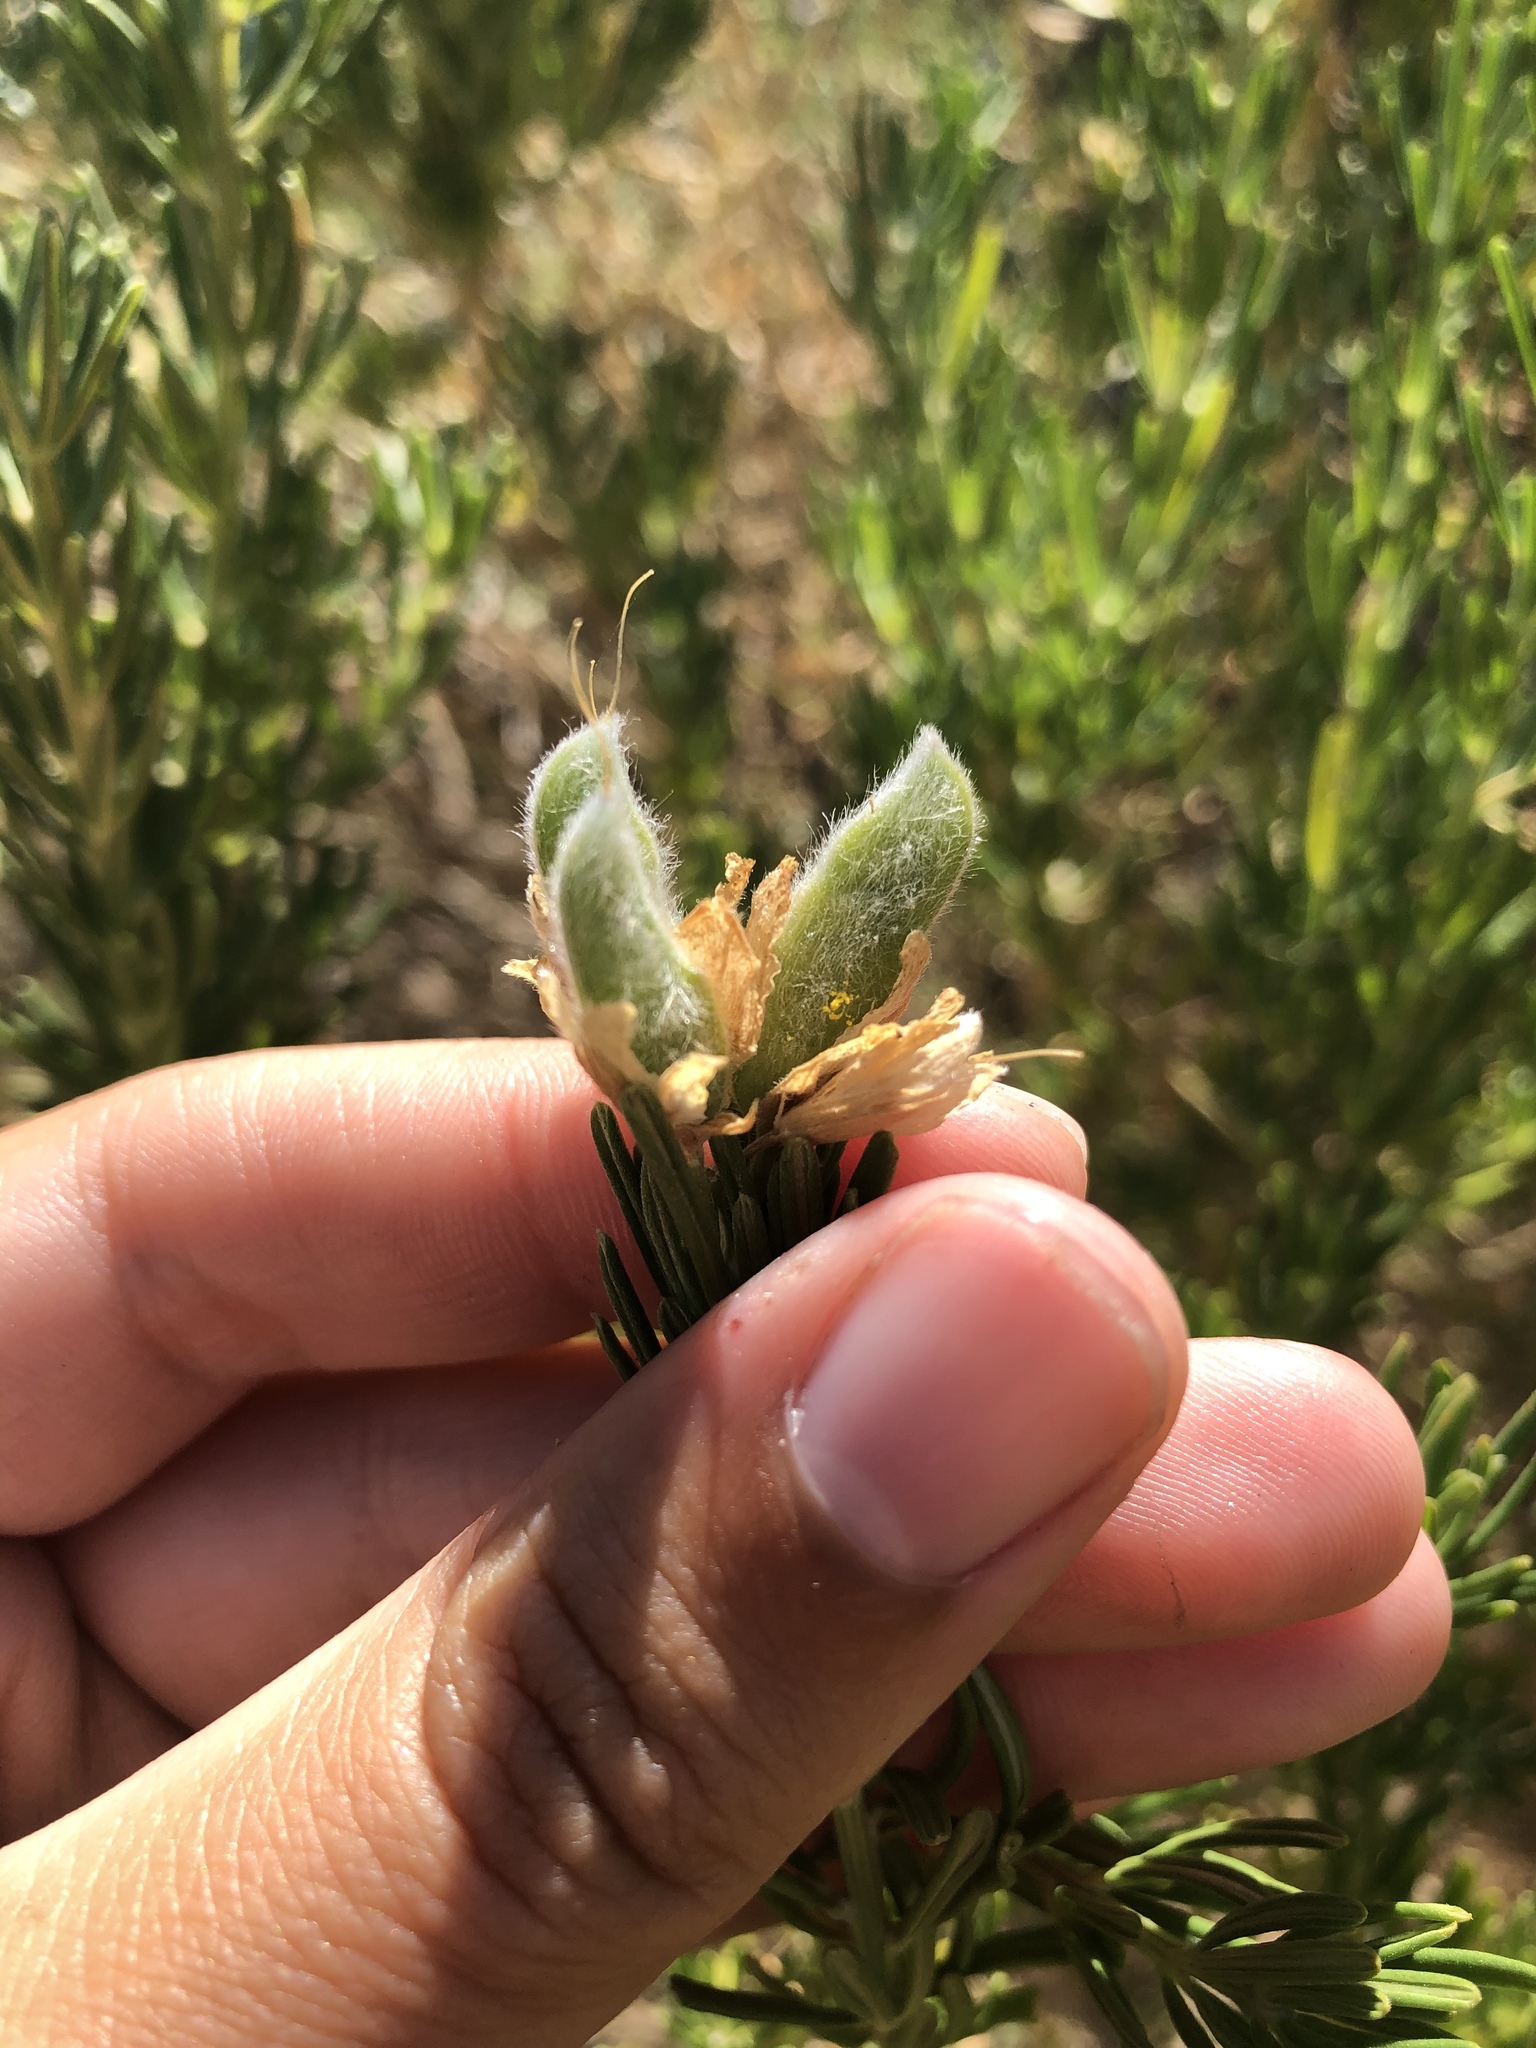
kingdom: Plantae
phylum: Tracheophyta
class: Magnoliopsida
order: Fabales
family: Fabaceae
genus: Genista
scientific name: Genista linifolia
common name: Mediterranean broom
